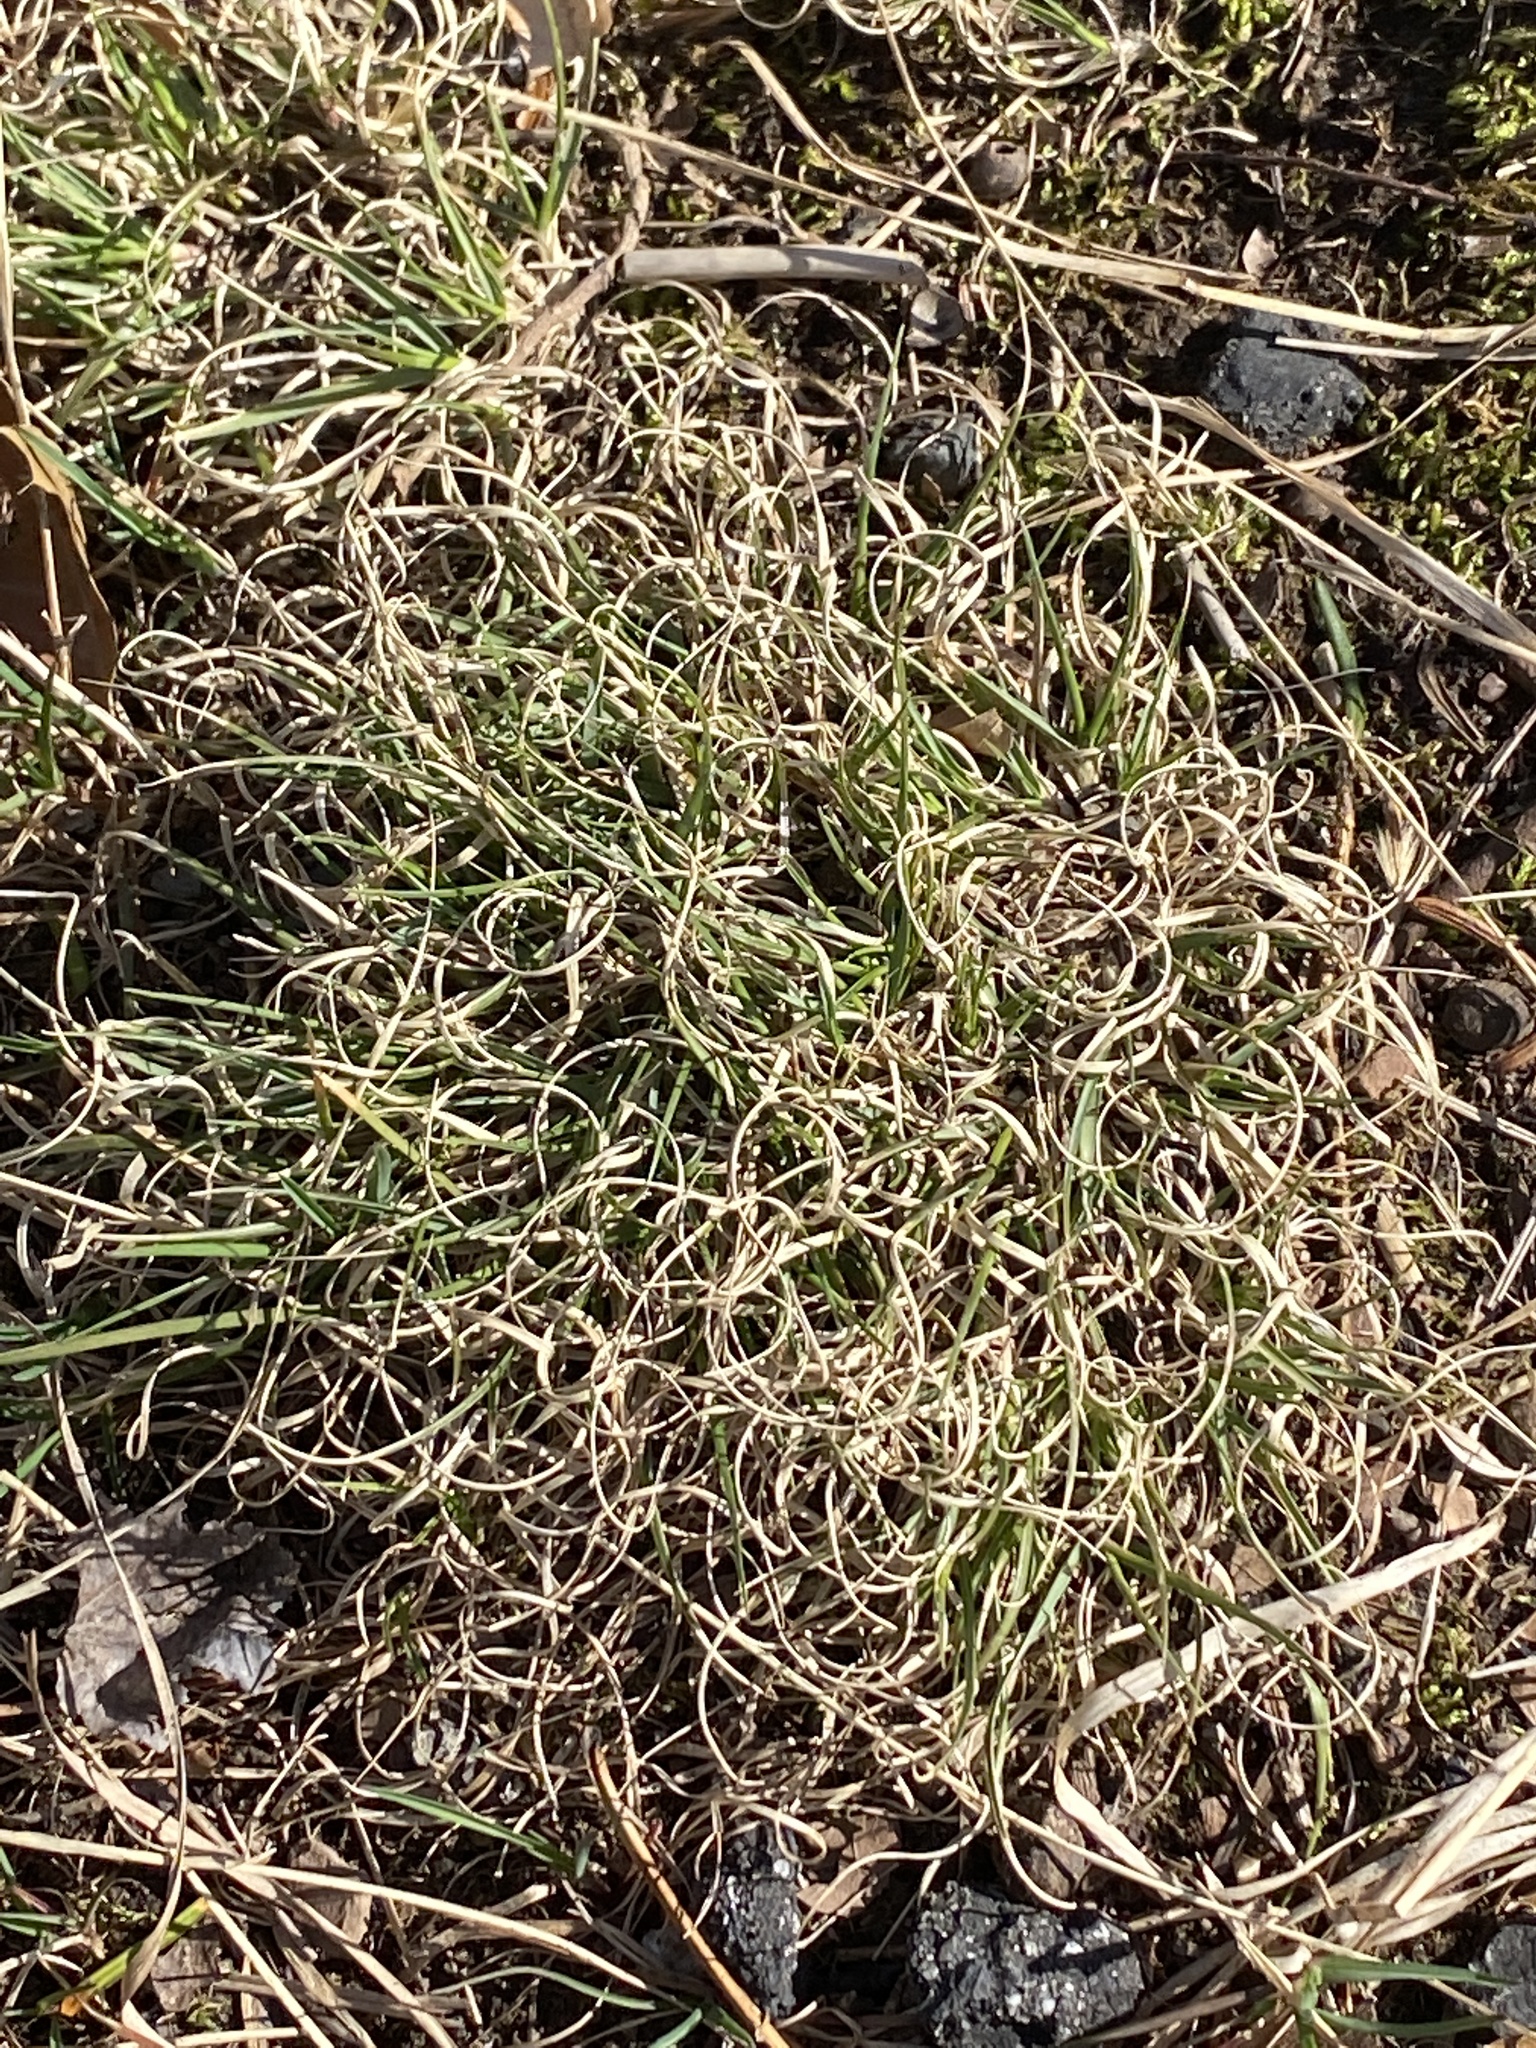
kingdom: Plantae
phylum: Tracheophyta
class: Liliopsida
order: Poales
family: Poaceae
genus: Danthonia
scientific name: Danthonia spicata
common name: Common wild oatgrass
